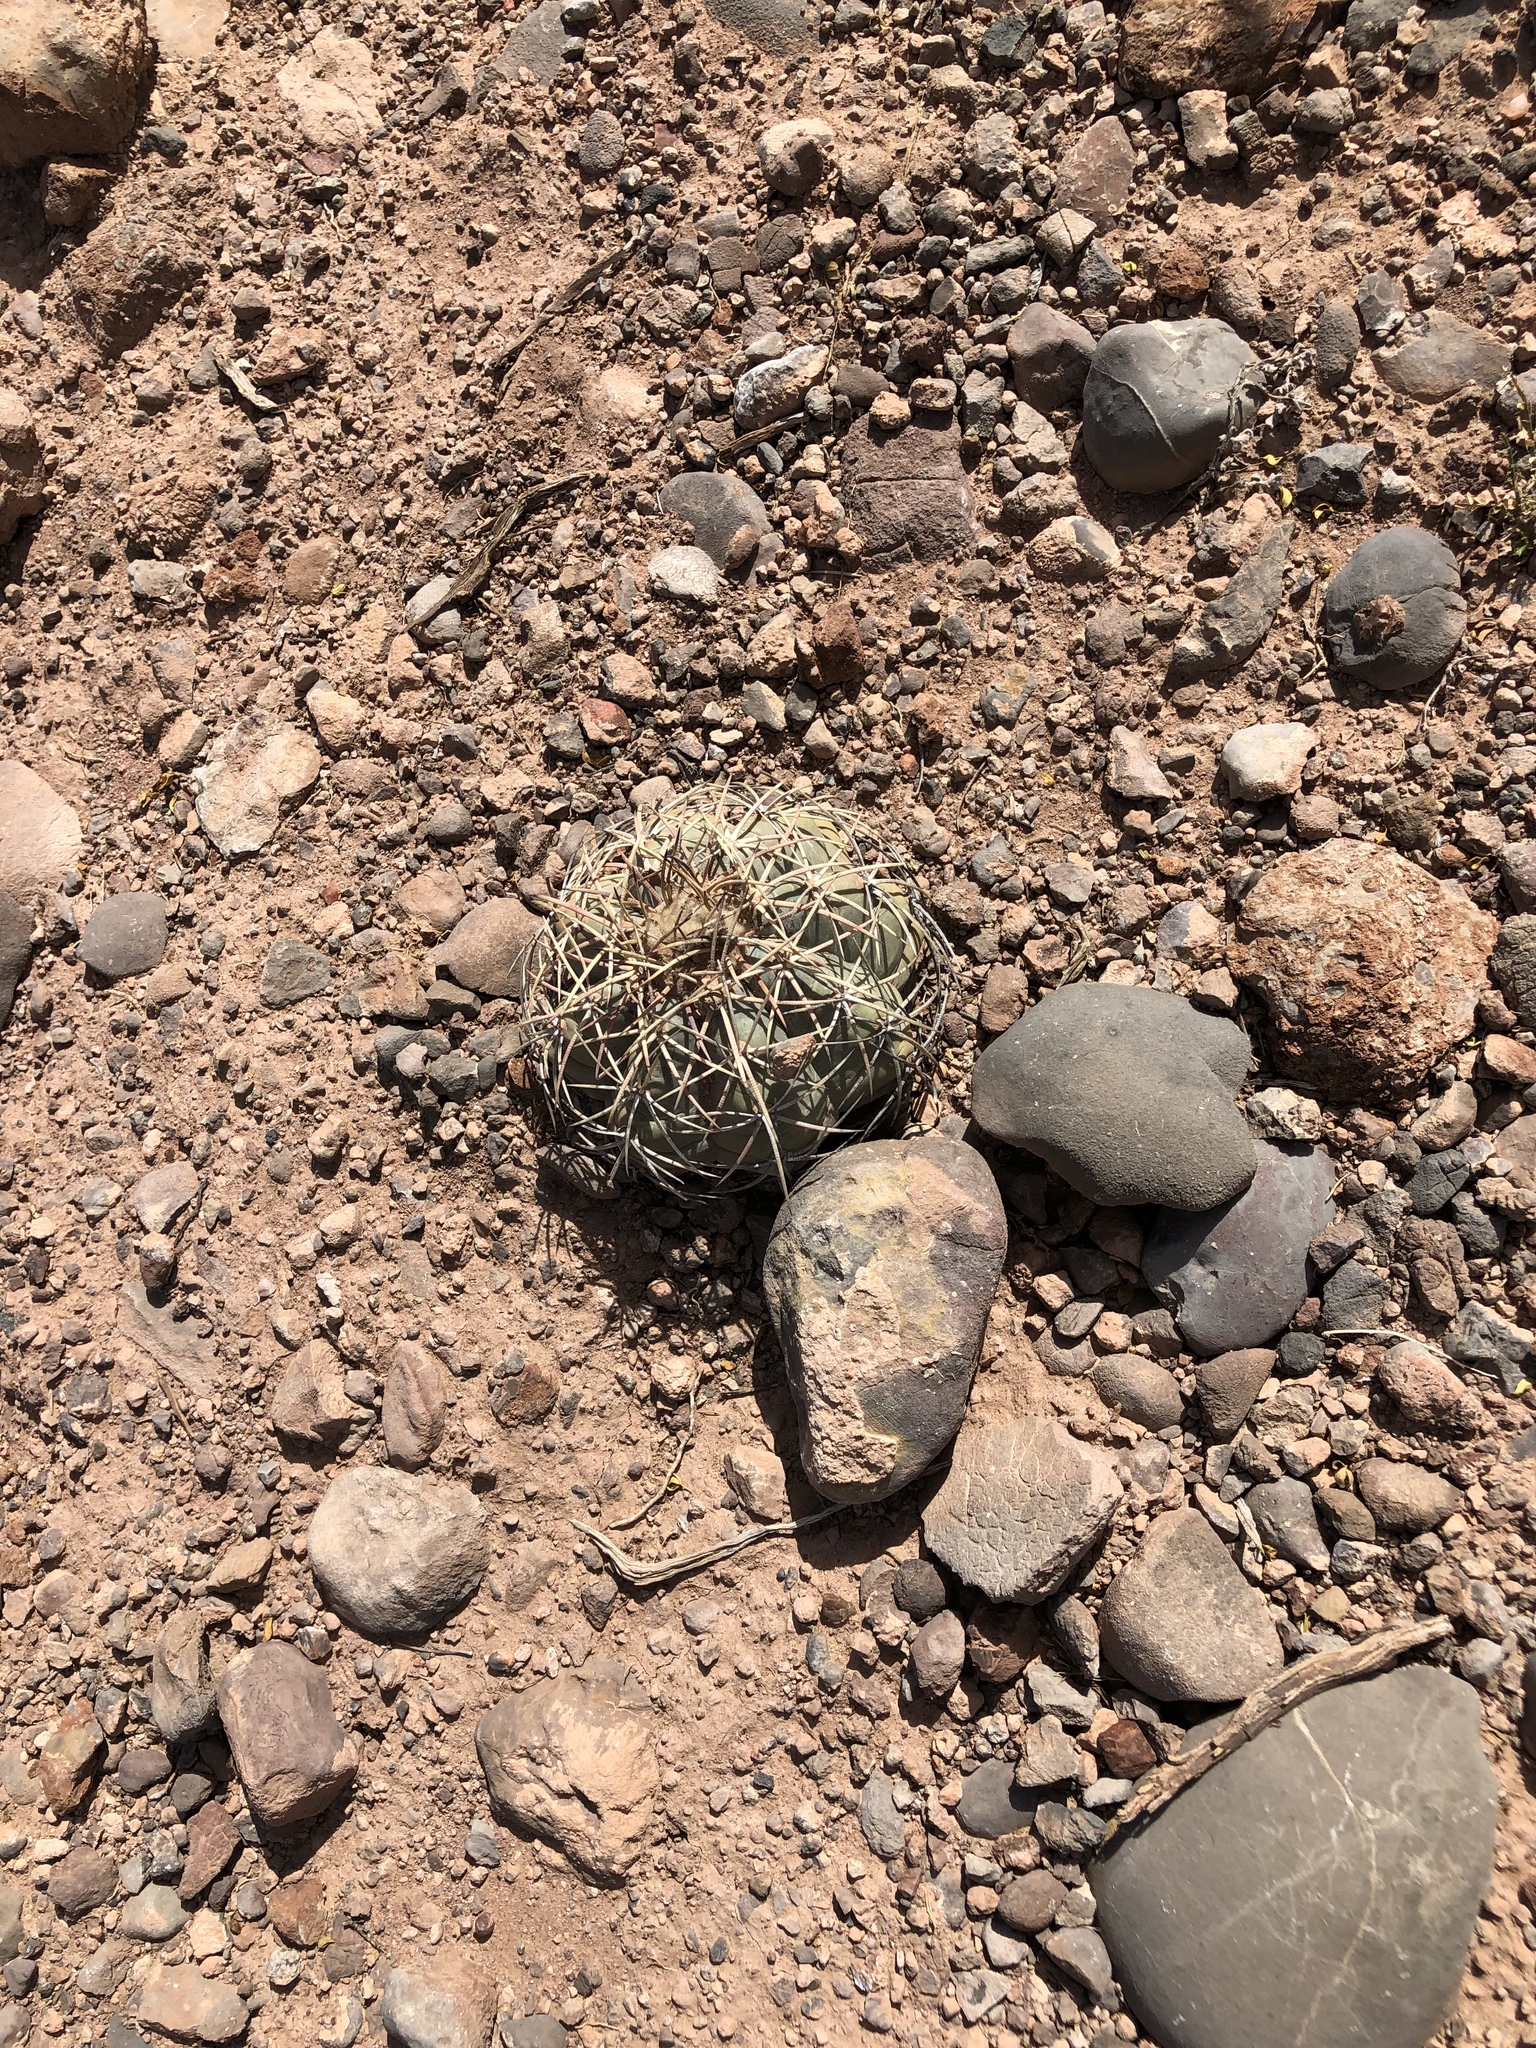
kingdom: Plantae
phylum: Tracheophyta
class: Magnoliopsida
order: Caryophyllales
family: Cactaceae
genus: Echinocactus
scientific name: Echinocactus horizonthalonius
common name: Devilshead
